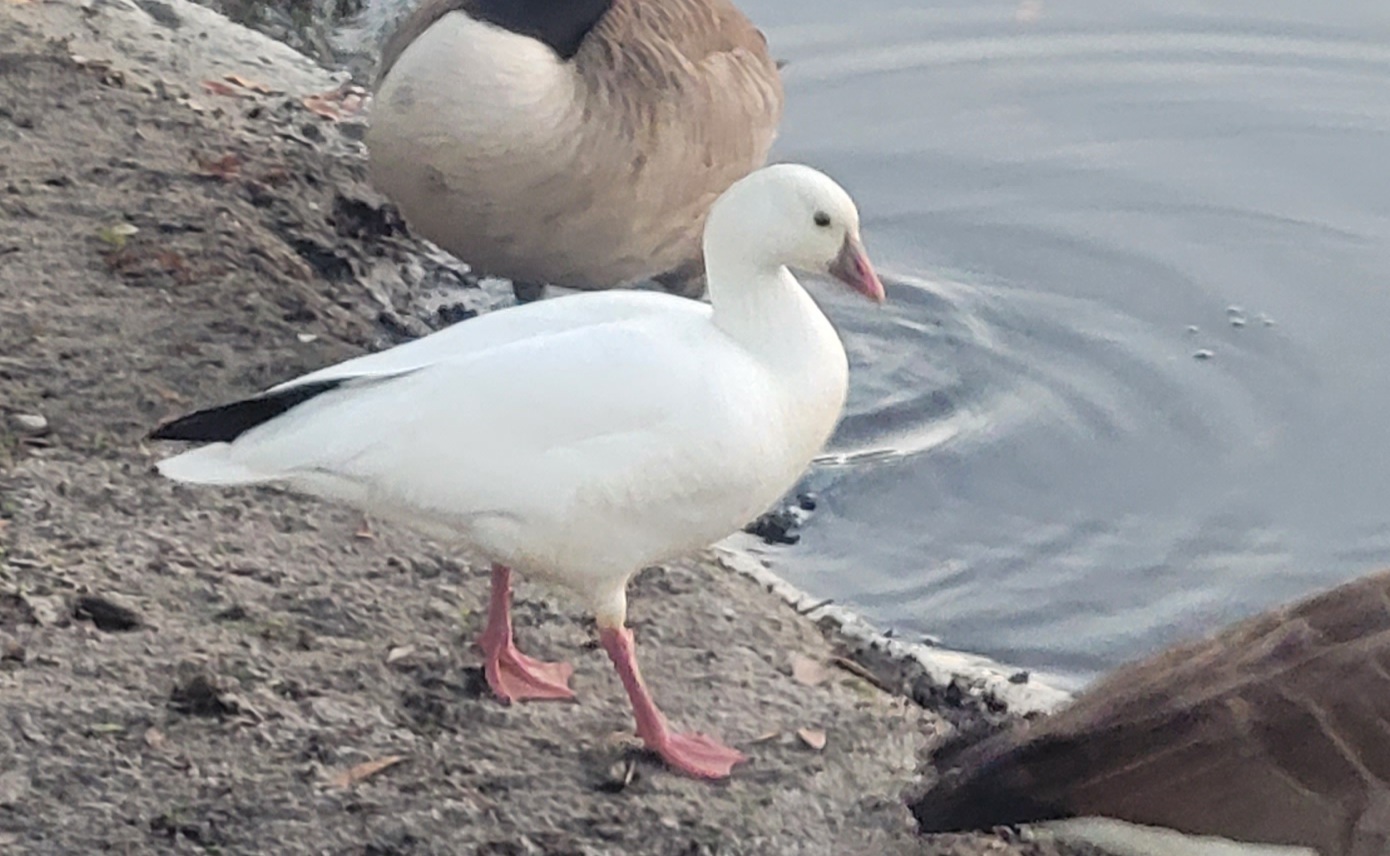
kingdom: Animalia
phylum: Chordata
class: Aves
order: Anseriformes
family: Anatidae
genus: Anser
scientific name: Anser rossii
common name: Ross's goose
